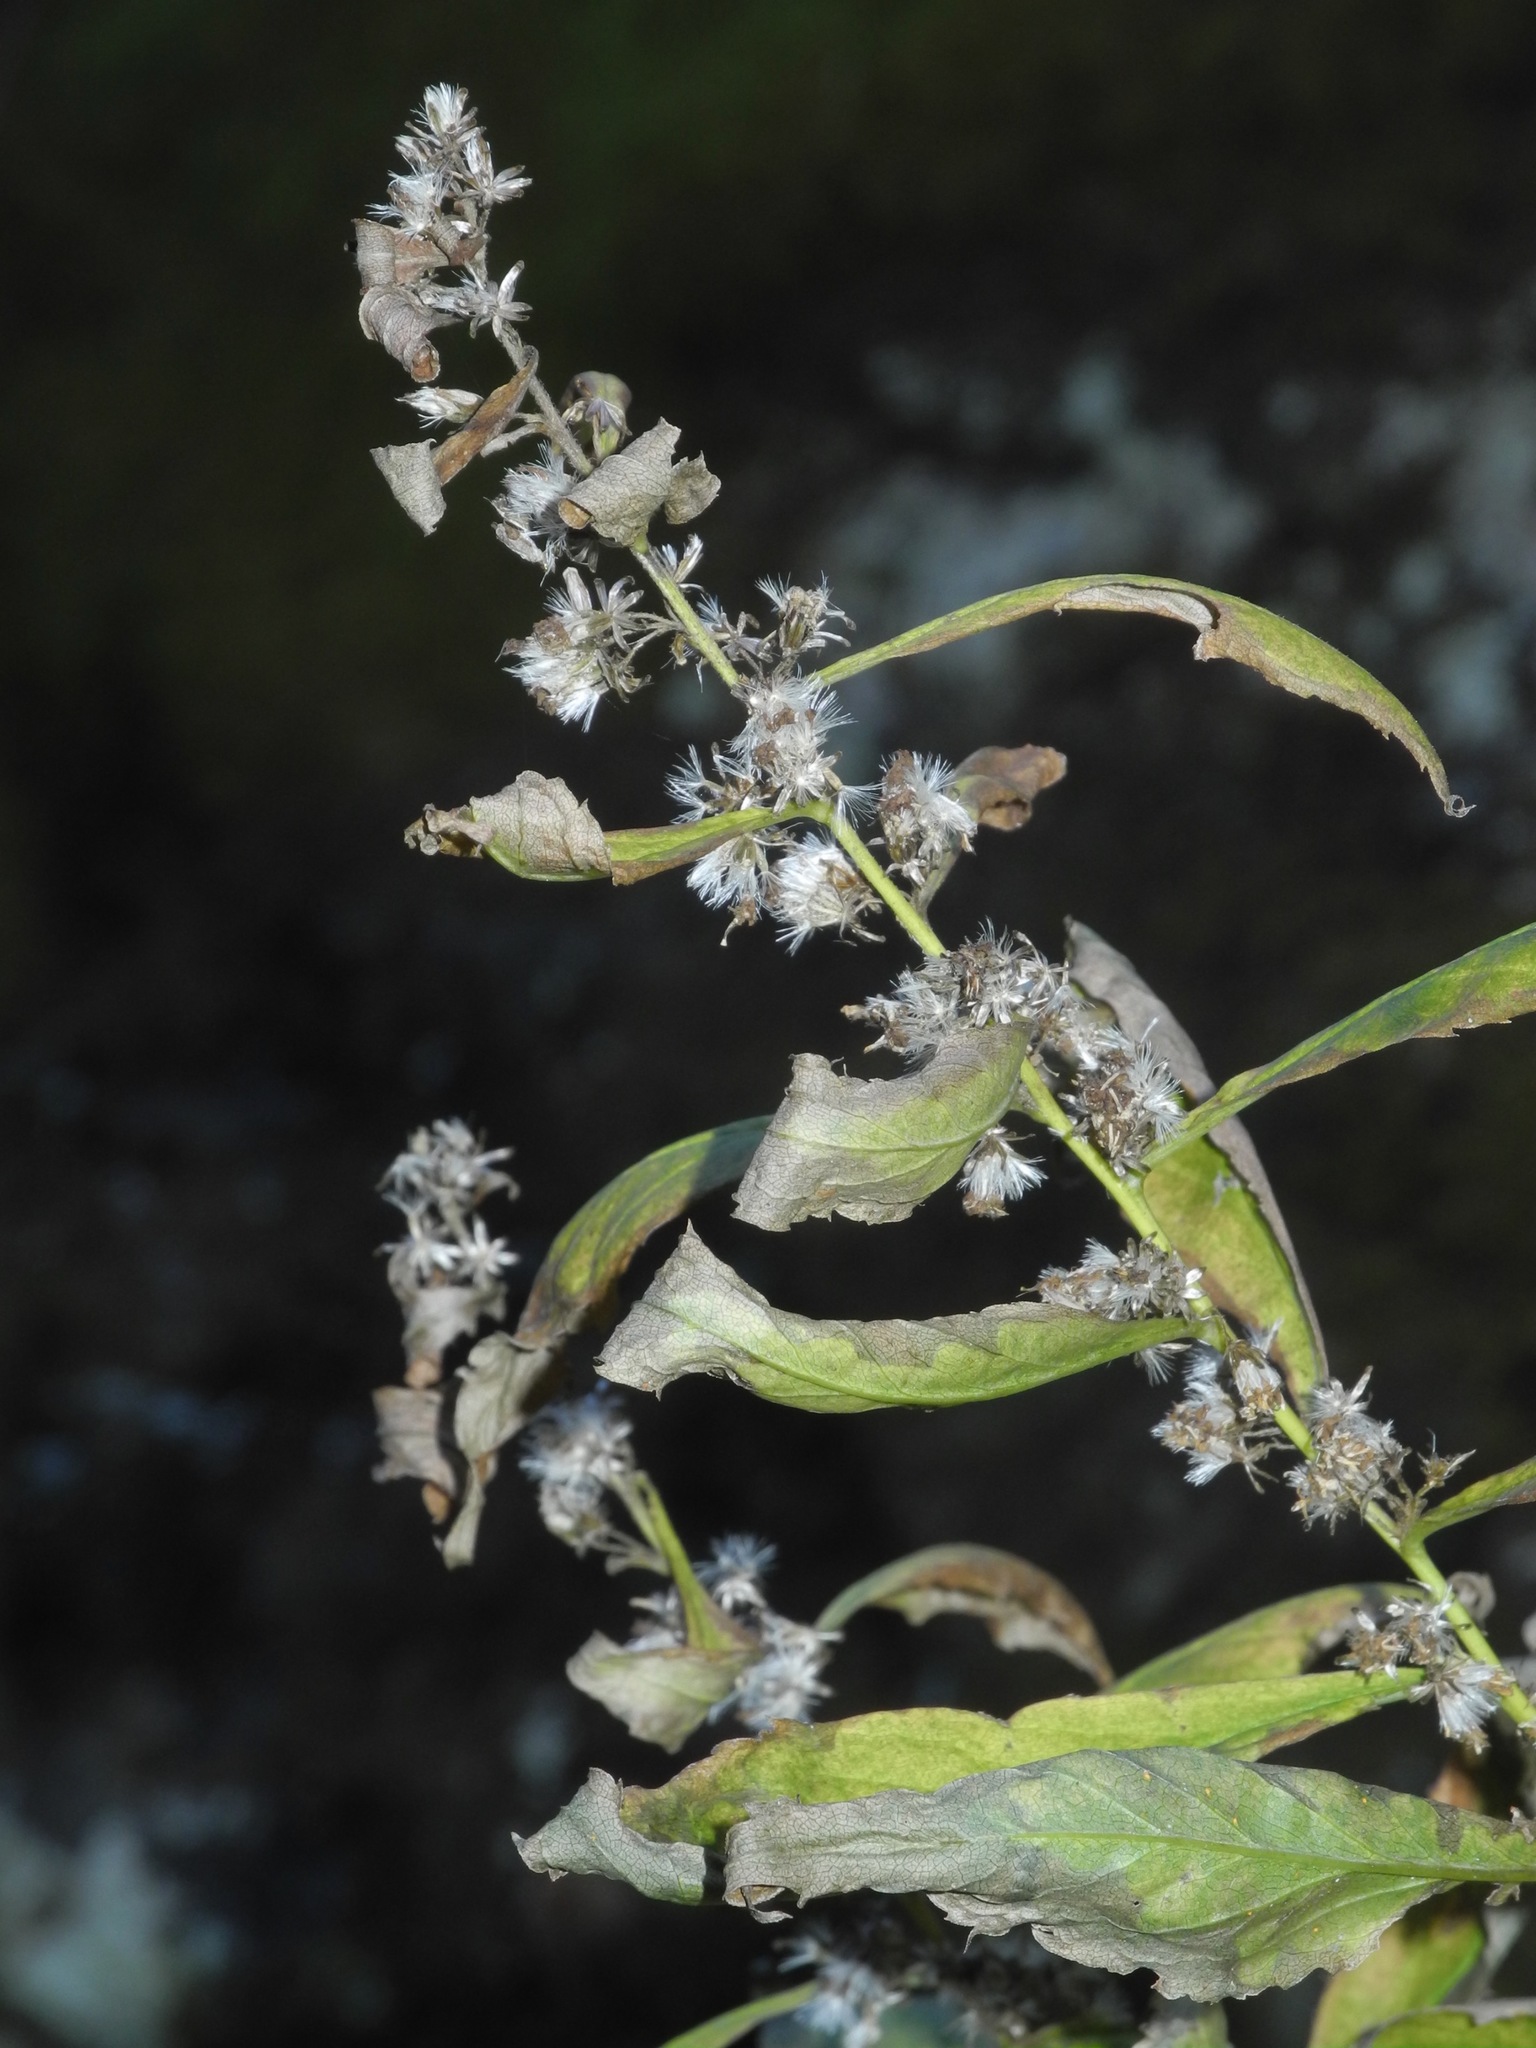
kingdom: Plantae
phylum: Tracheophyta
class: Magnoliopsida
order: Asterales
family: Asteraceae
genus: Solidago
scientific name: Solidago curtisii
